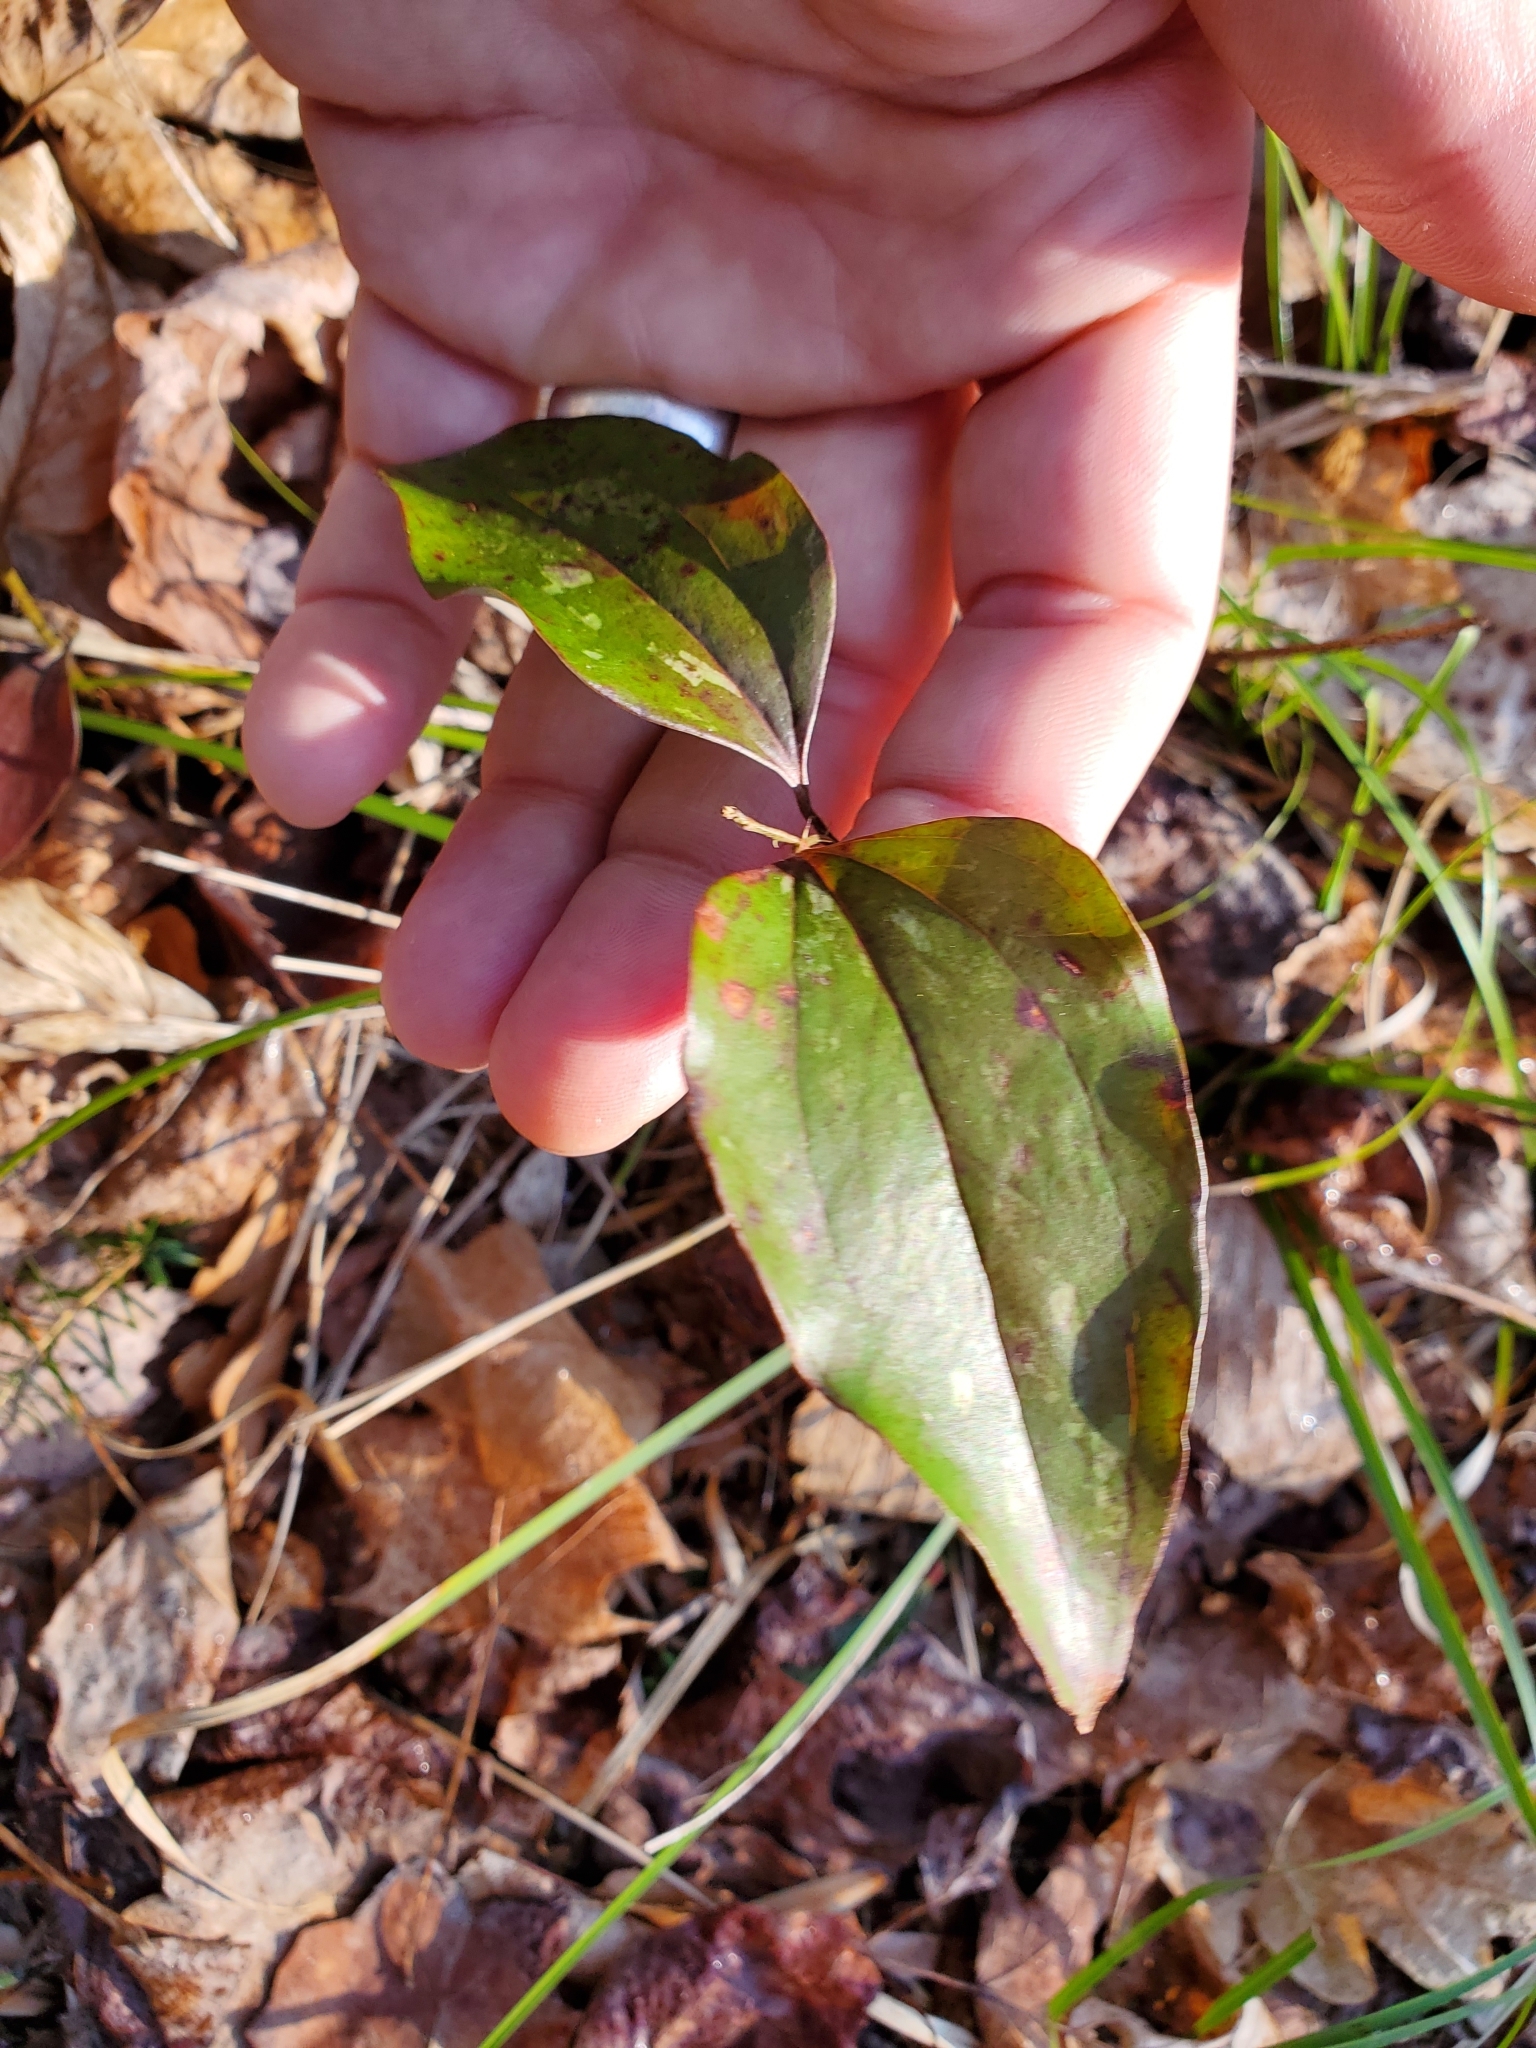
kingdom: Plantae
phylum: Tracheophyta
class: Liliopsida
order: Liliales
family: Smilacaceae
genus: Smilax
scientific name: Smilax glauca
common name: Cat greenbrier
